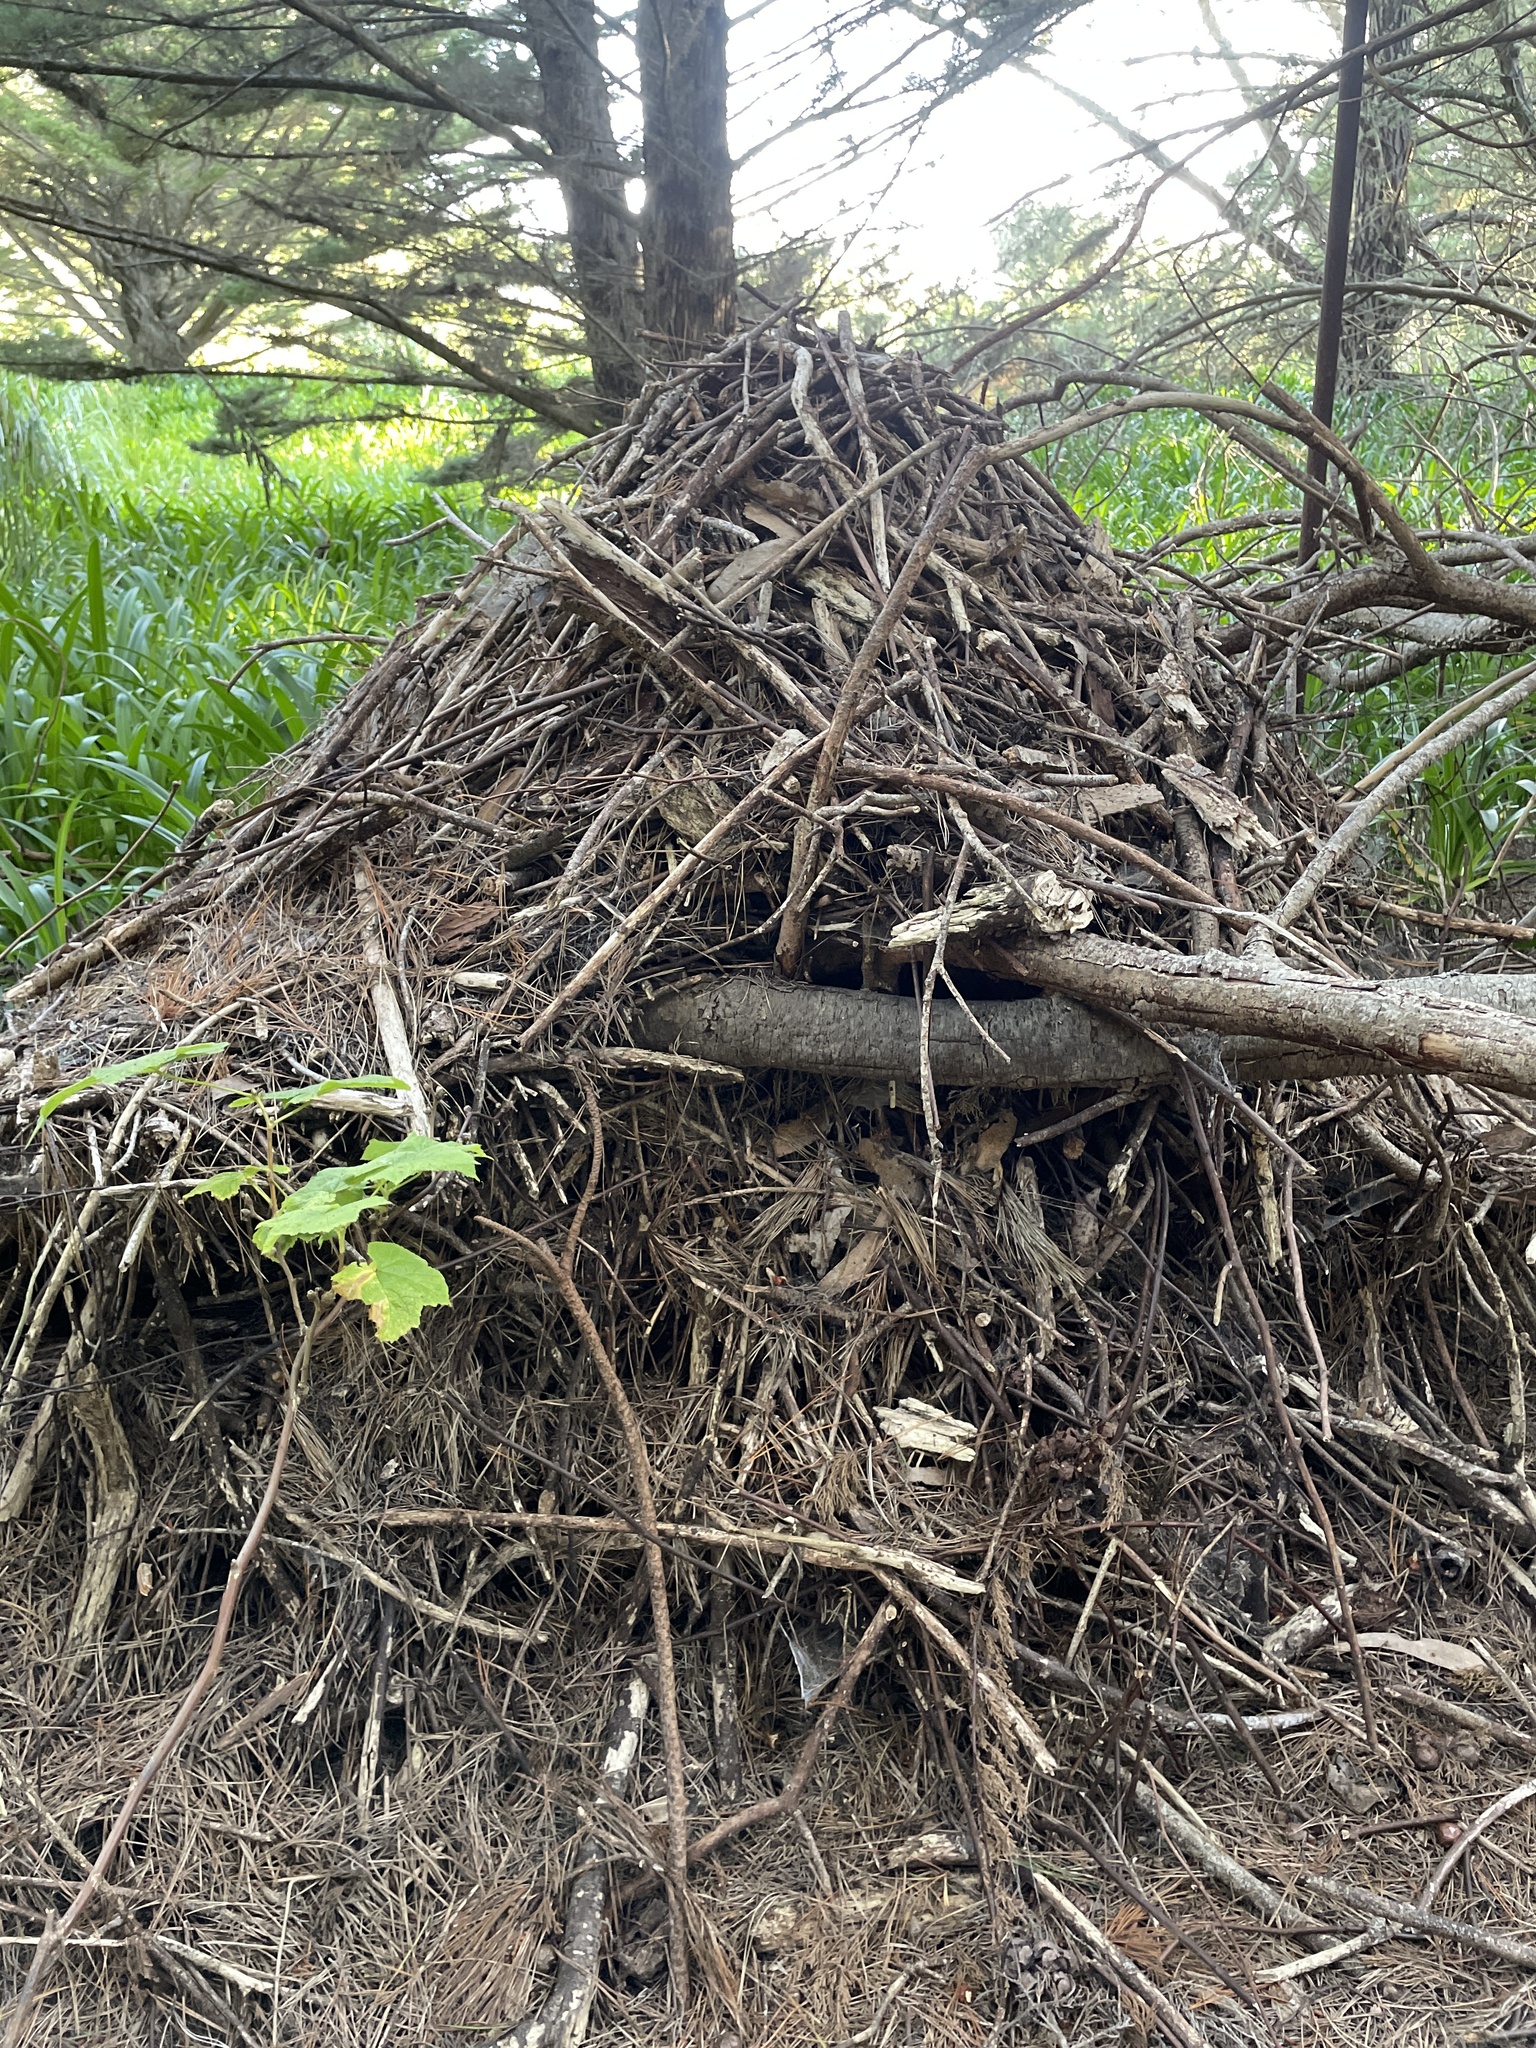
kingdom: Animalia
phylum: Chordata
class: Mammalia
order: Rodentia
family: Cricetidae
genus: Neotoma
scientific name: Neotoma fuscipes
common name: Dusky-footed woodrat
